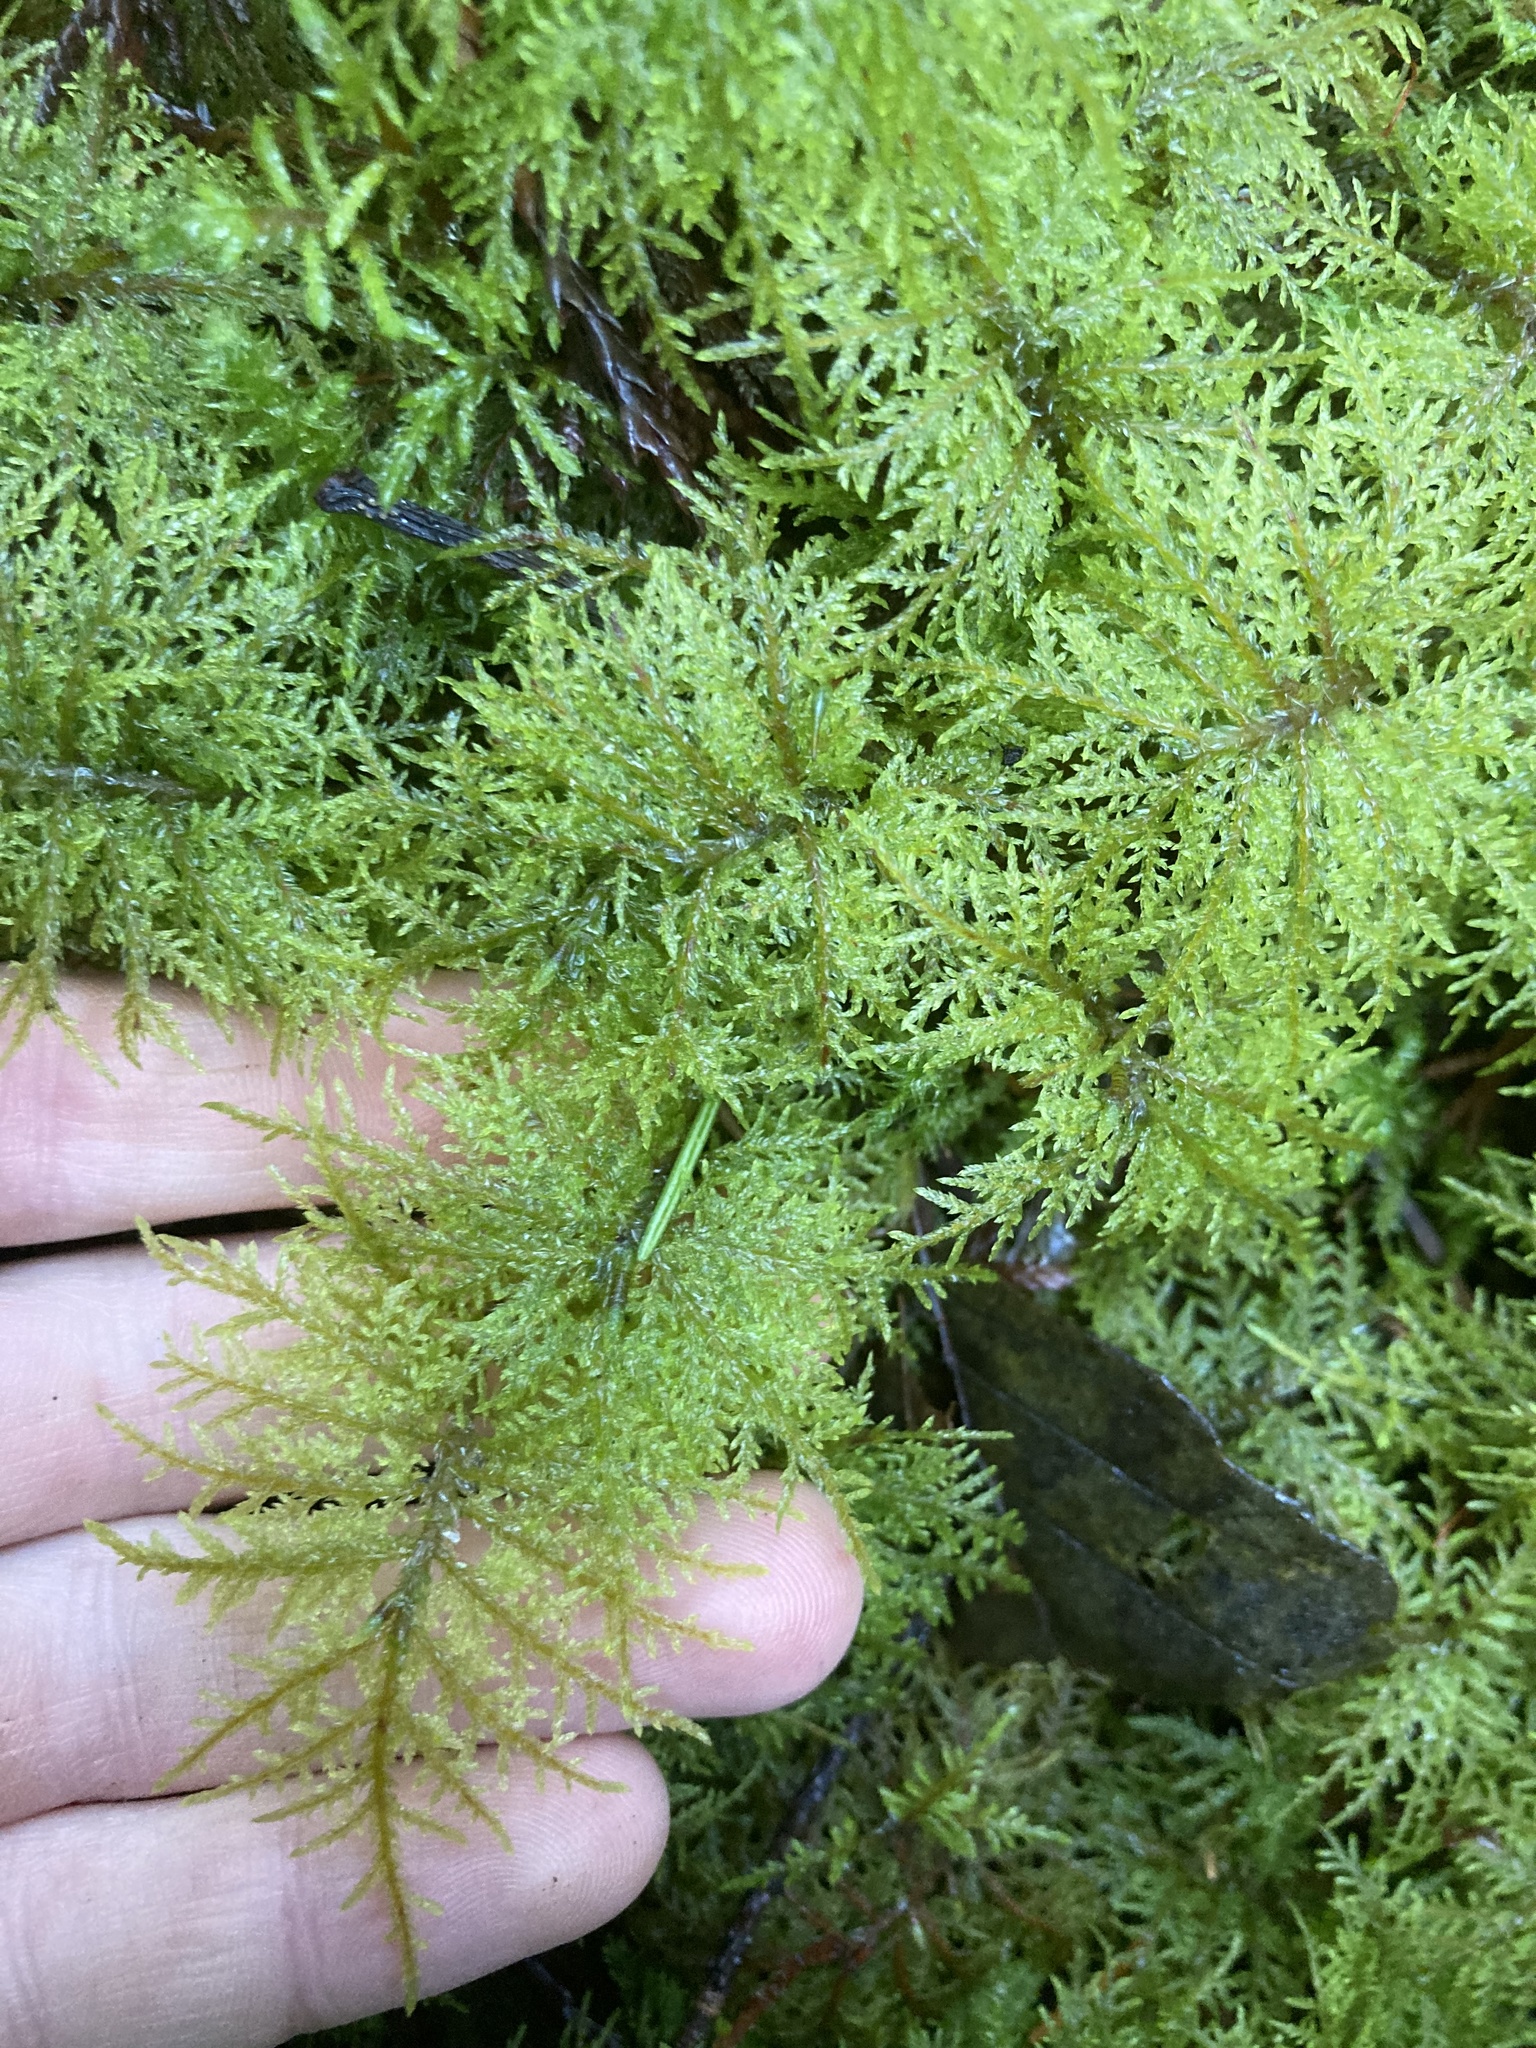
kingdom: Plantae
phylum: Bryophyta
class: Bryopsida
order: Hypnales
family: Hylocomiaceae
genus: Hylocomium
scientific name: Hylocomium splendens
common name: Stairstep moss
